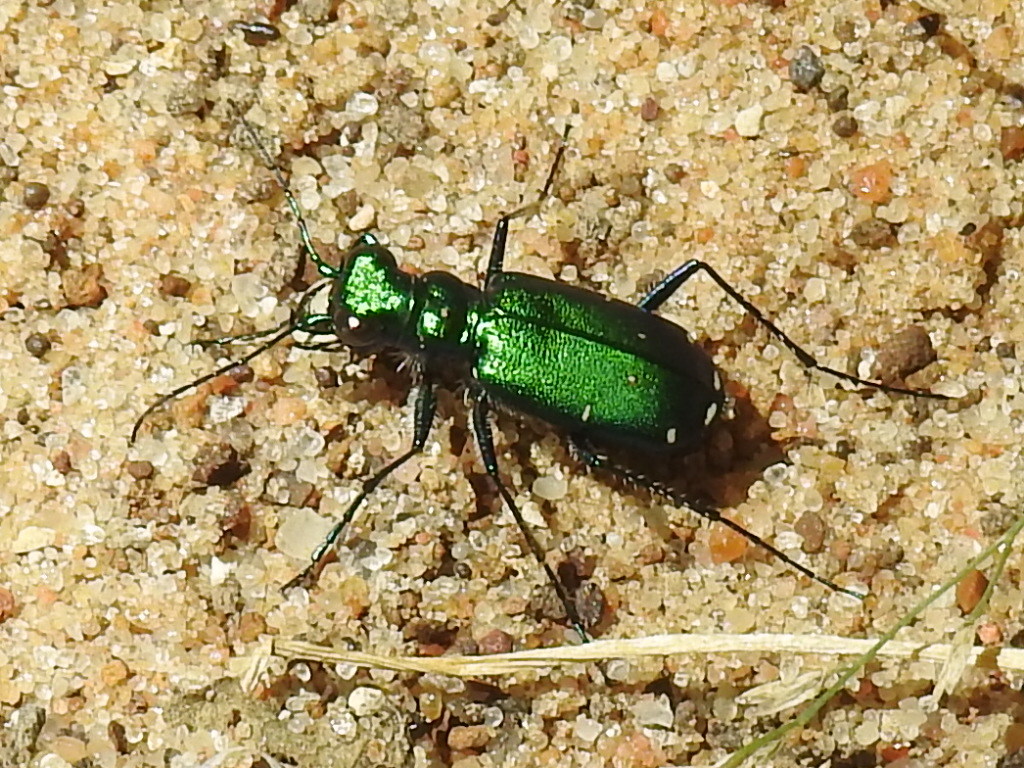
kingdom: Animalia
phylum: Arthropoda
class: Insecta
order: Coleoptera
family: Carabidae
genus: Cicindela
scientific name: Cicindela sexguttata
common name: Six-spotted tiger beetle
